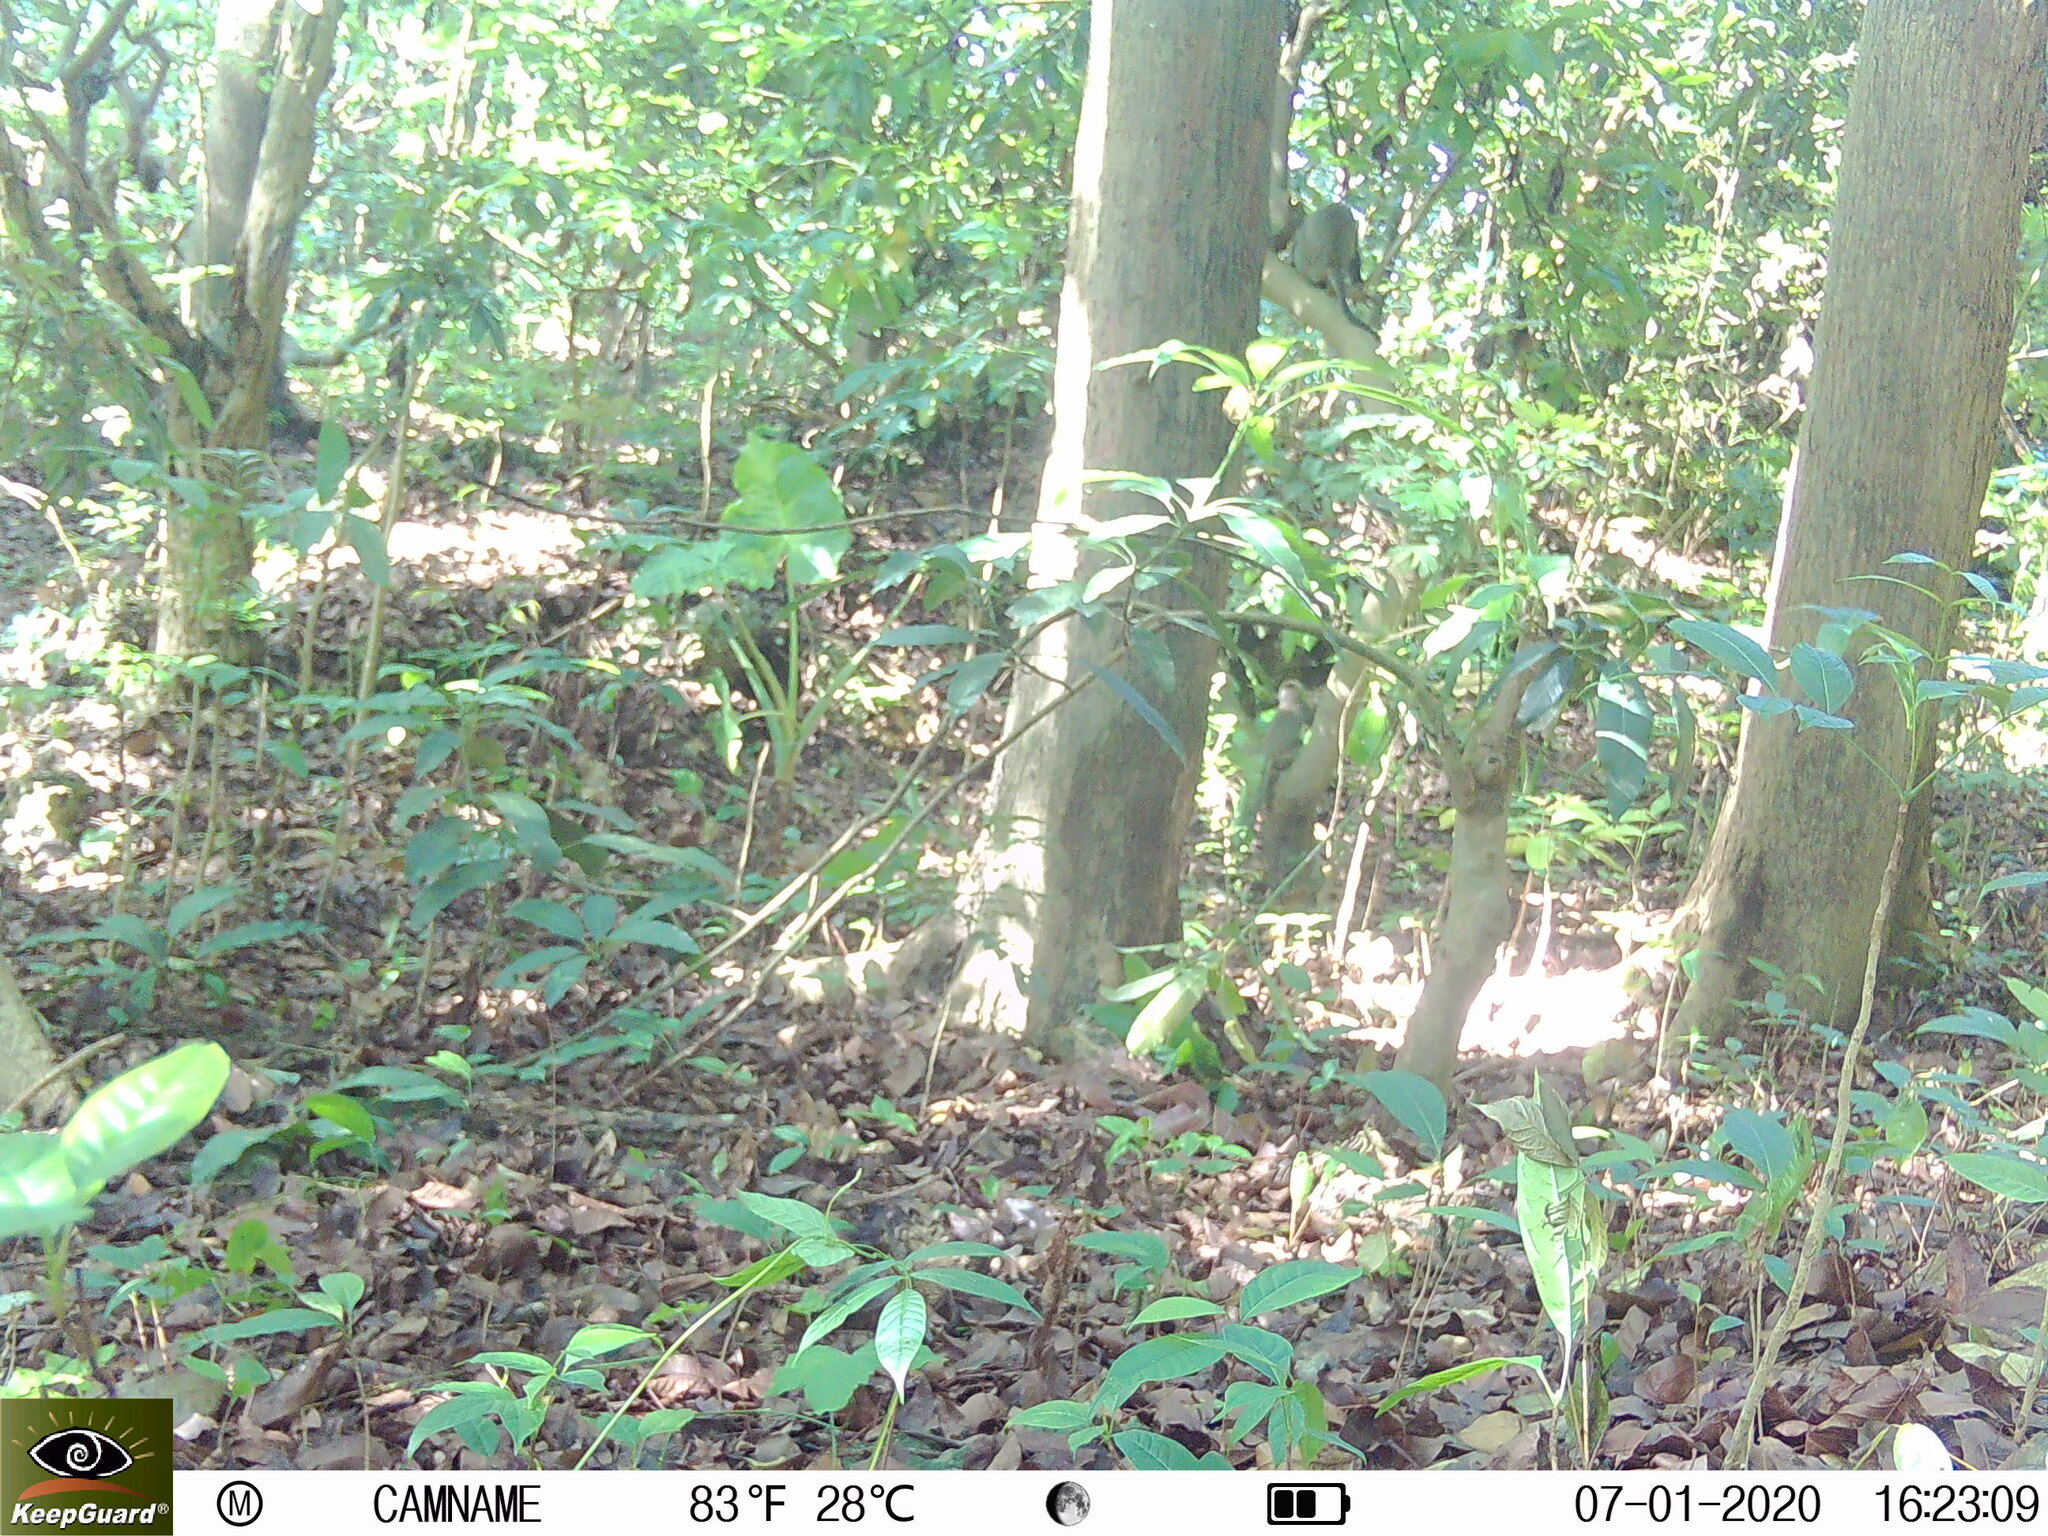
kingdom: Animalia
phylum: Chordata
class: Mammalia
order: Primates
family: Cercopithecidae
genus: Macaca
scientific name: Macaca cyclopis
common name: Formosan rock macaque
